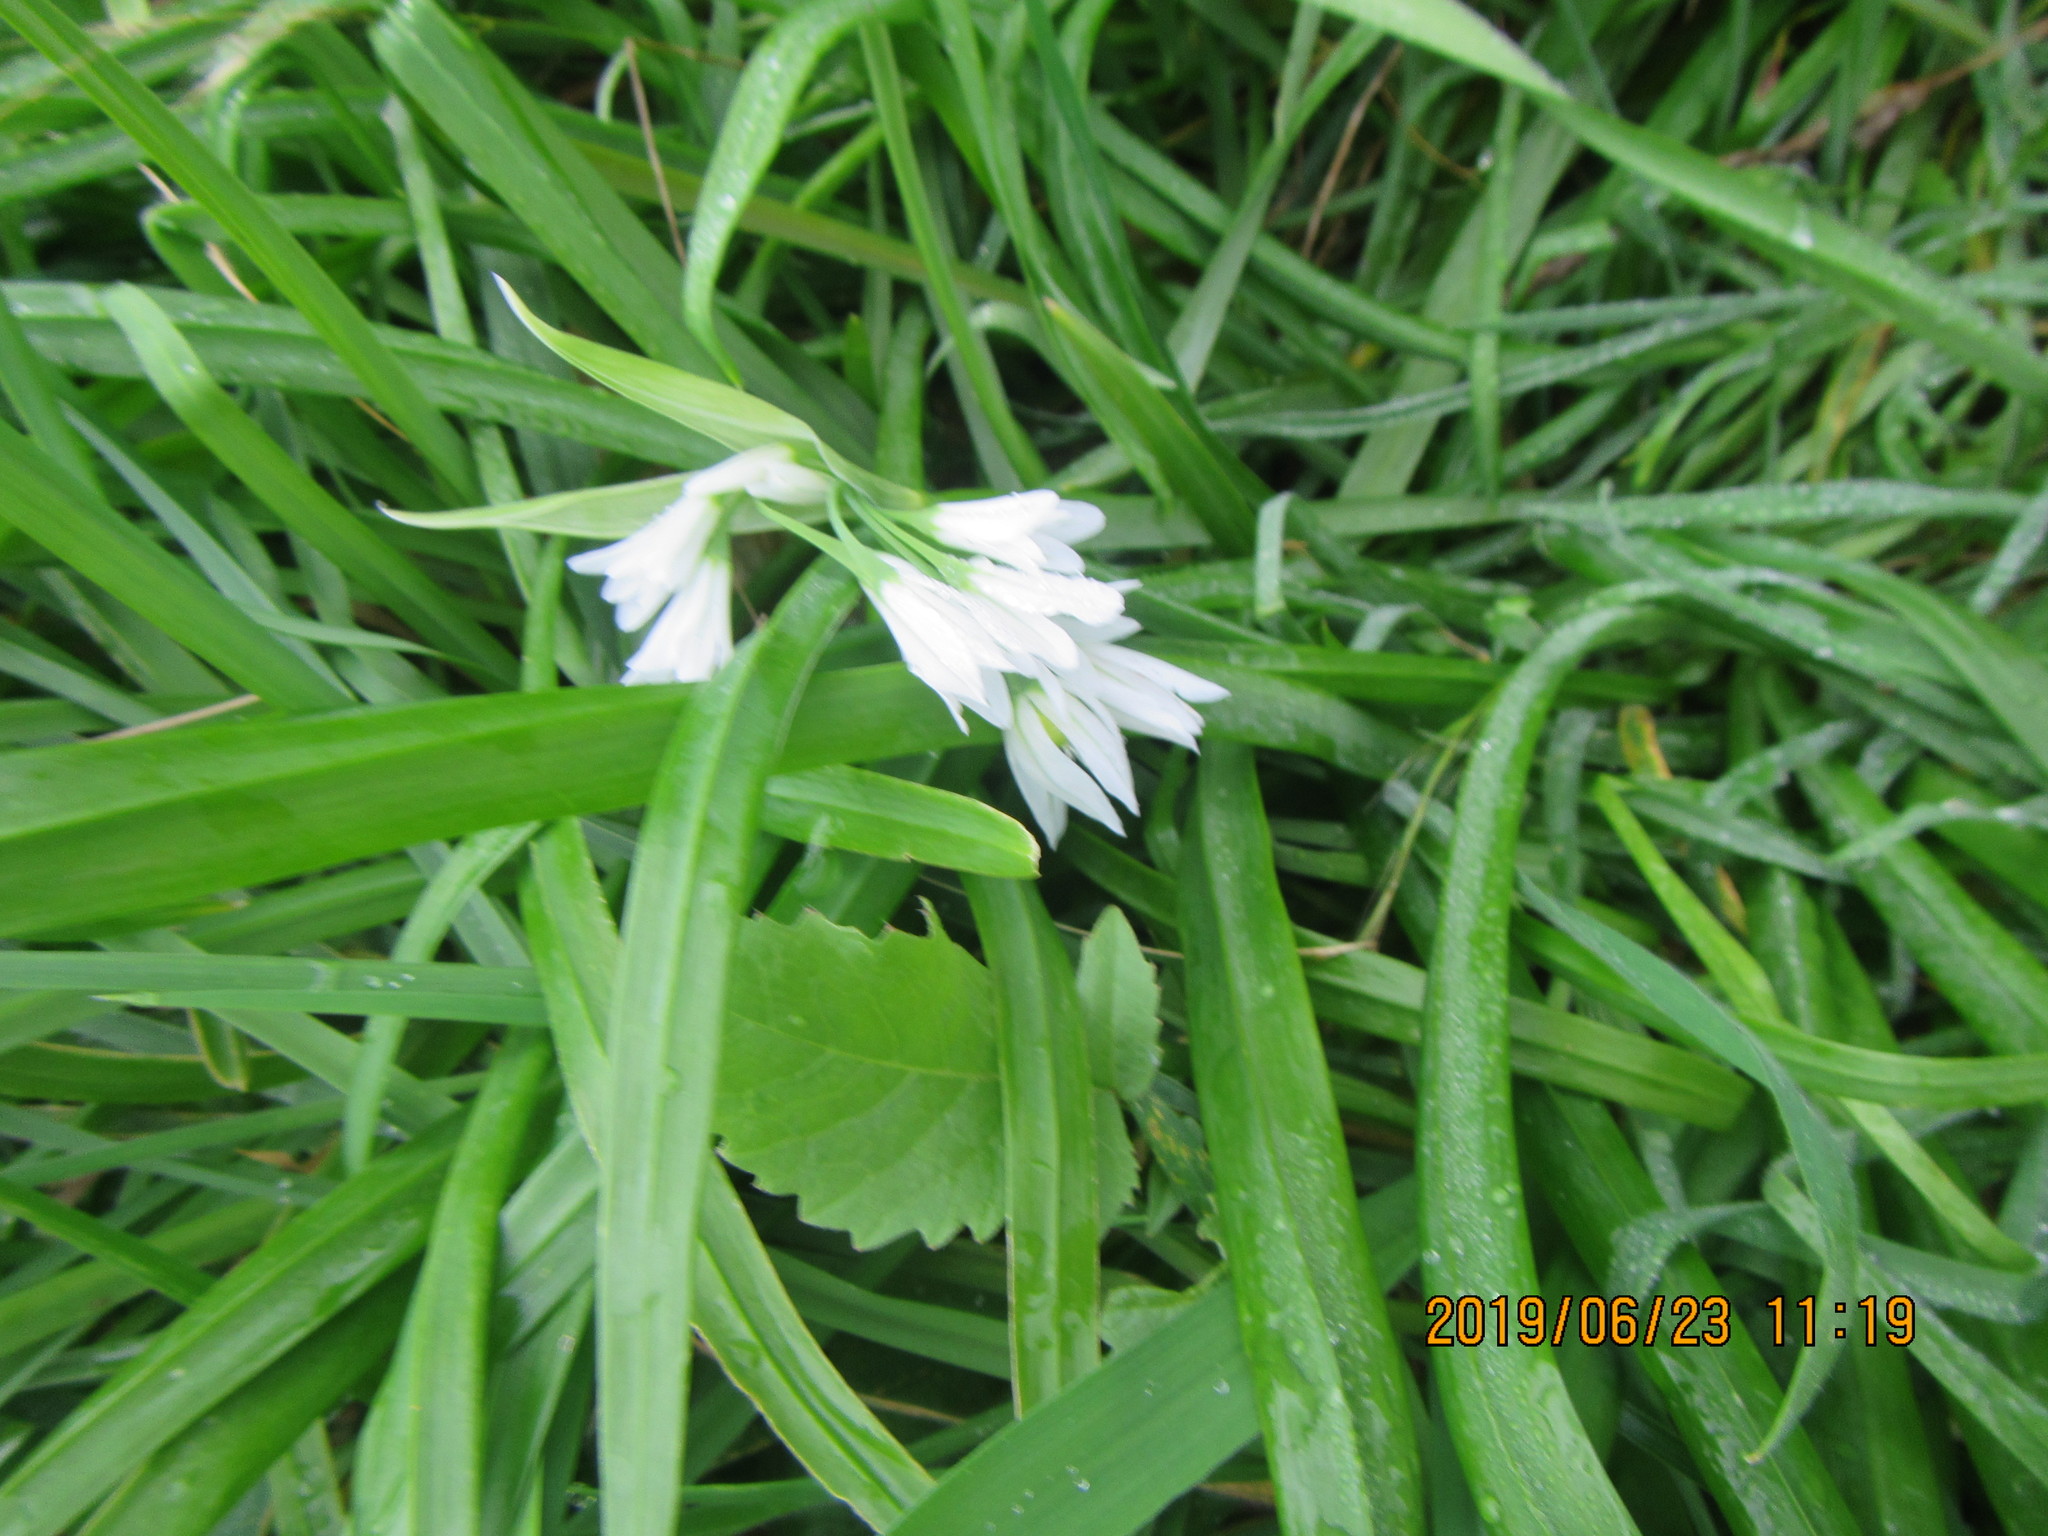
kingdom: Plantae
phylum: Tracheophyta
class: Liliopsida
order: Asparagales
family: Amaryllidaceae
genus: Allium
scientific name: Allium triquetrum
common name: Three-cornered garlic
